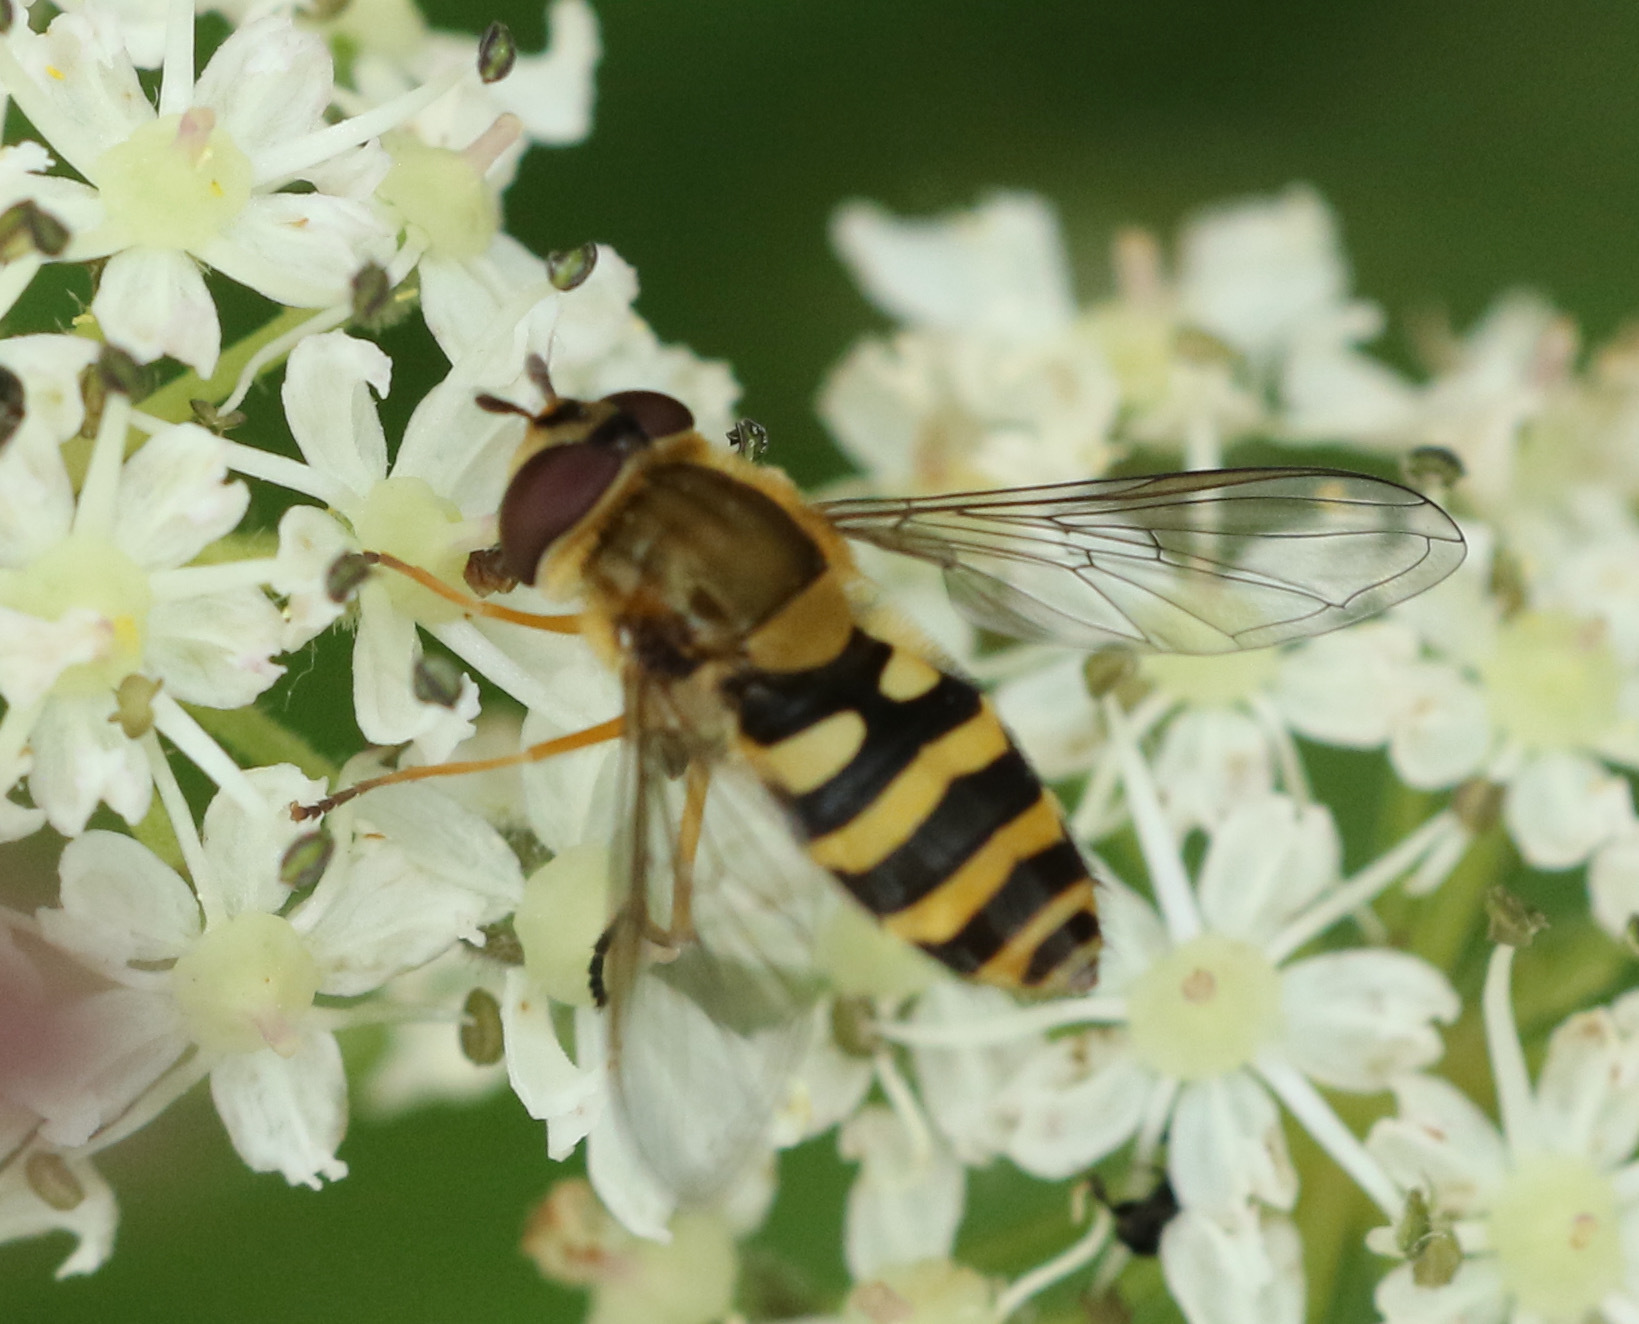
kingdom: Animalia
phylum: Arthropoda
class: Insecta
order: Diptera
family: Syrphidae
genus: Syrphus
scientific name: Syrphus ribesii
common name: Common flower fly
